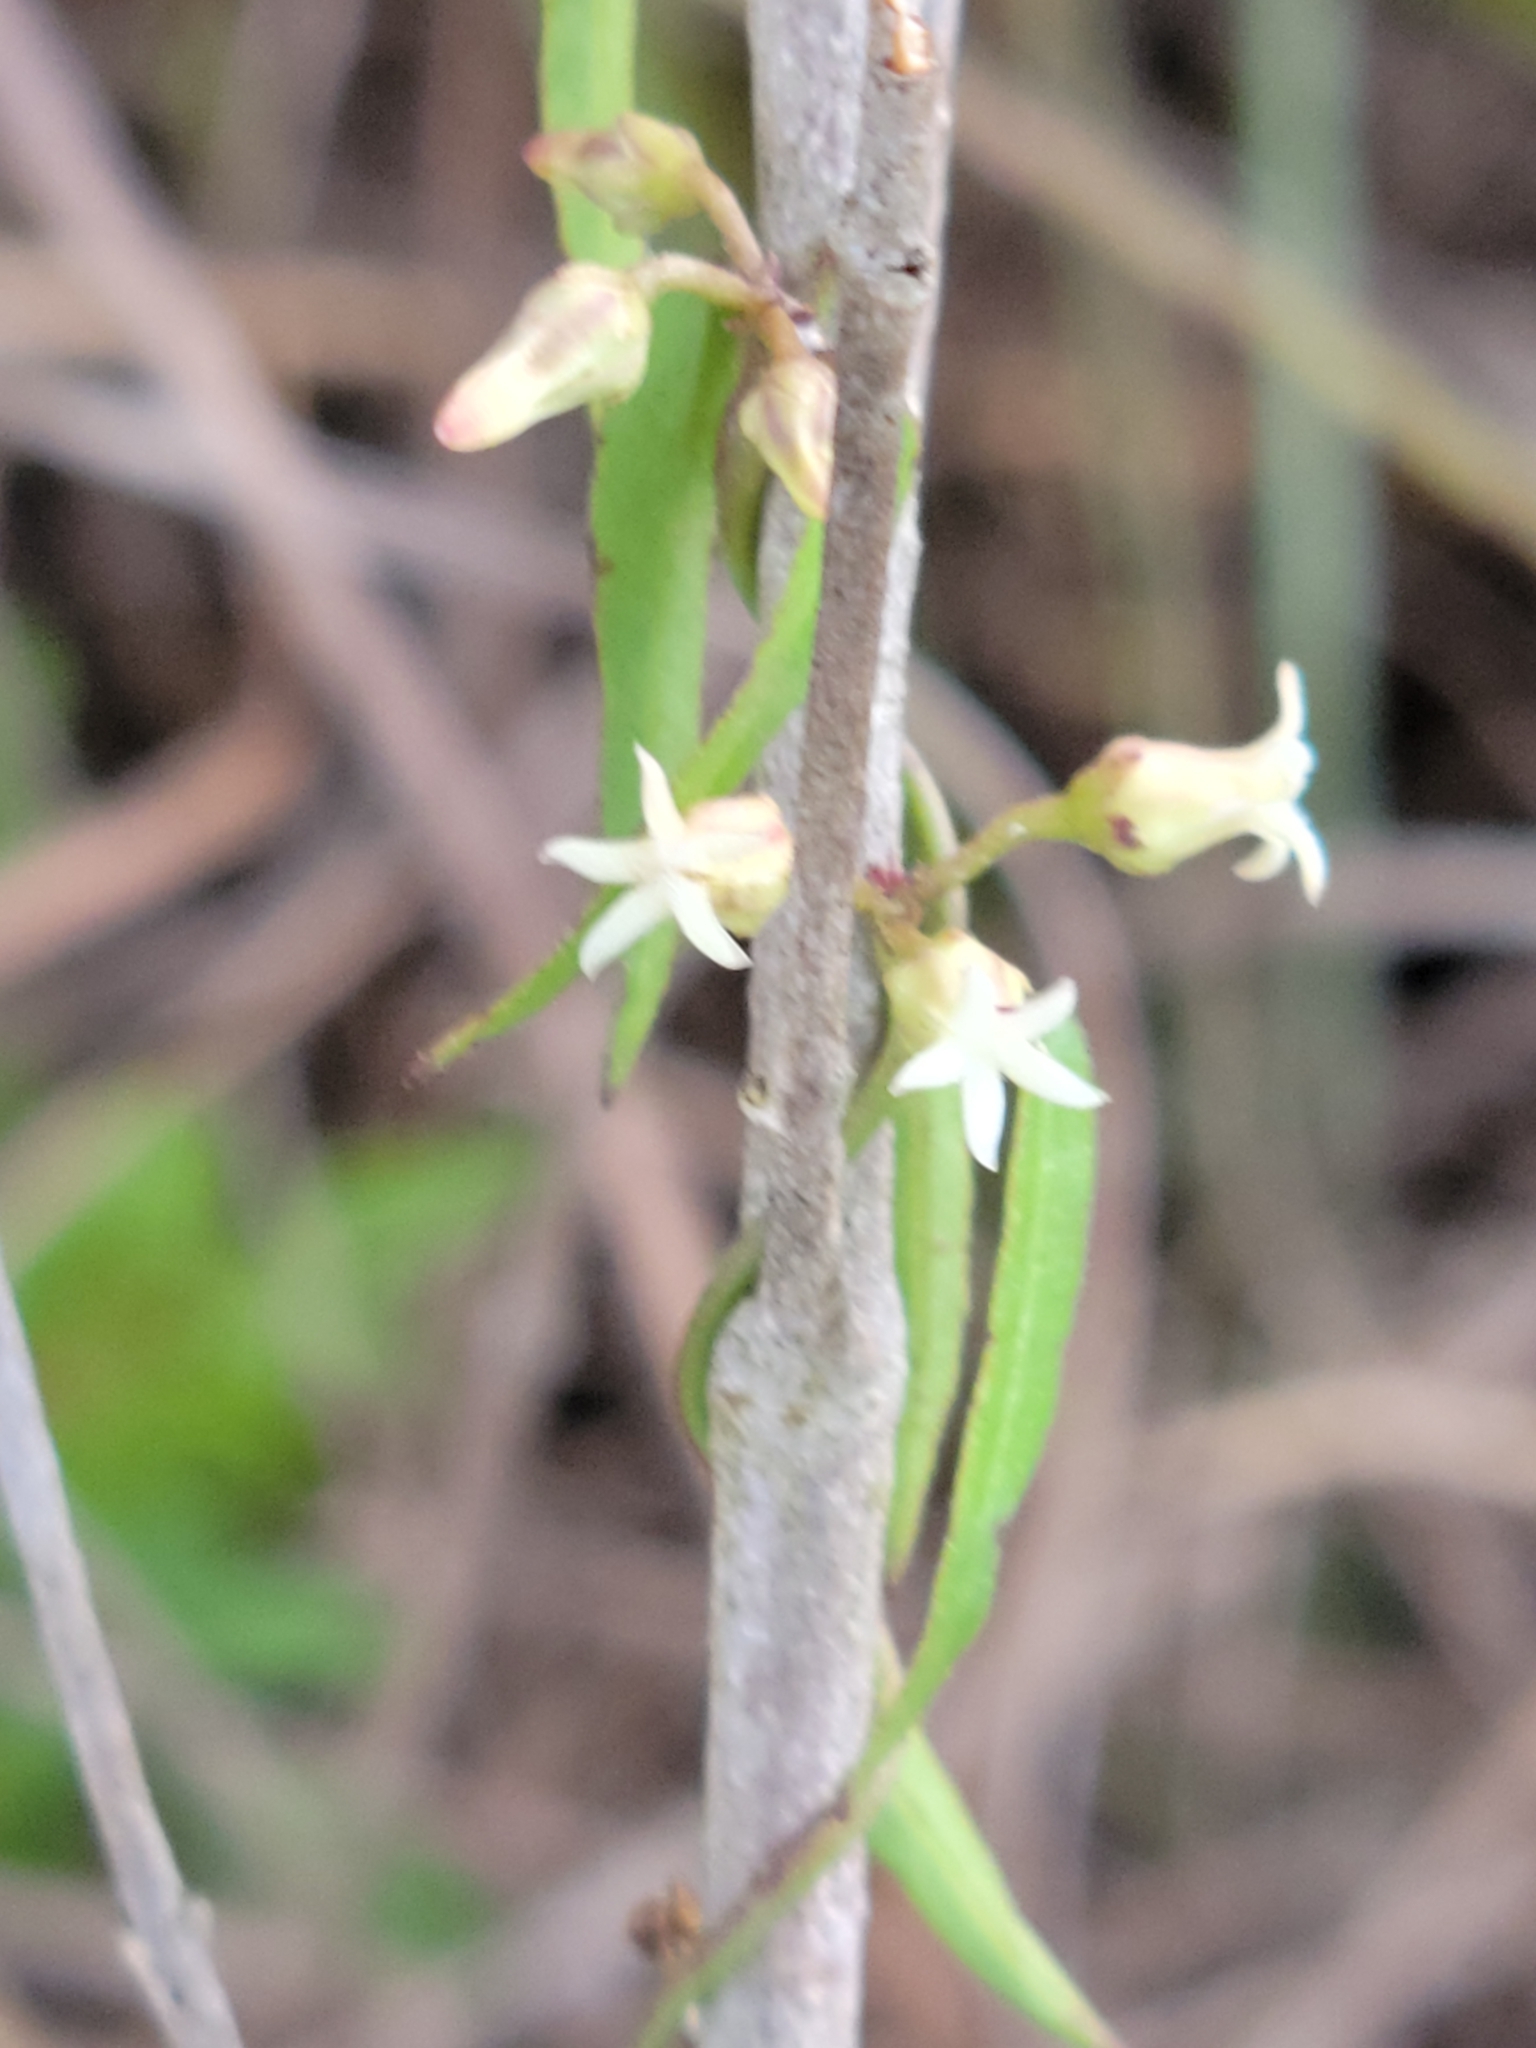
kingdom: Plantae
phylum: Tracheophyta
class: Magnoliopsida
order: Gentianales
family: Apocynaceae
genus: Metastelma
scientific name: Metastelma blodgettii
